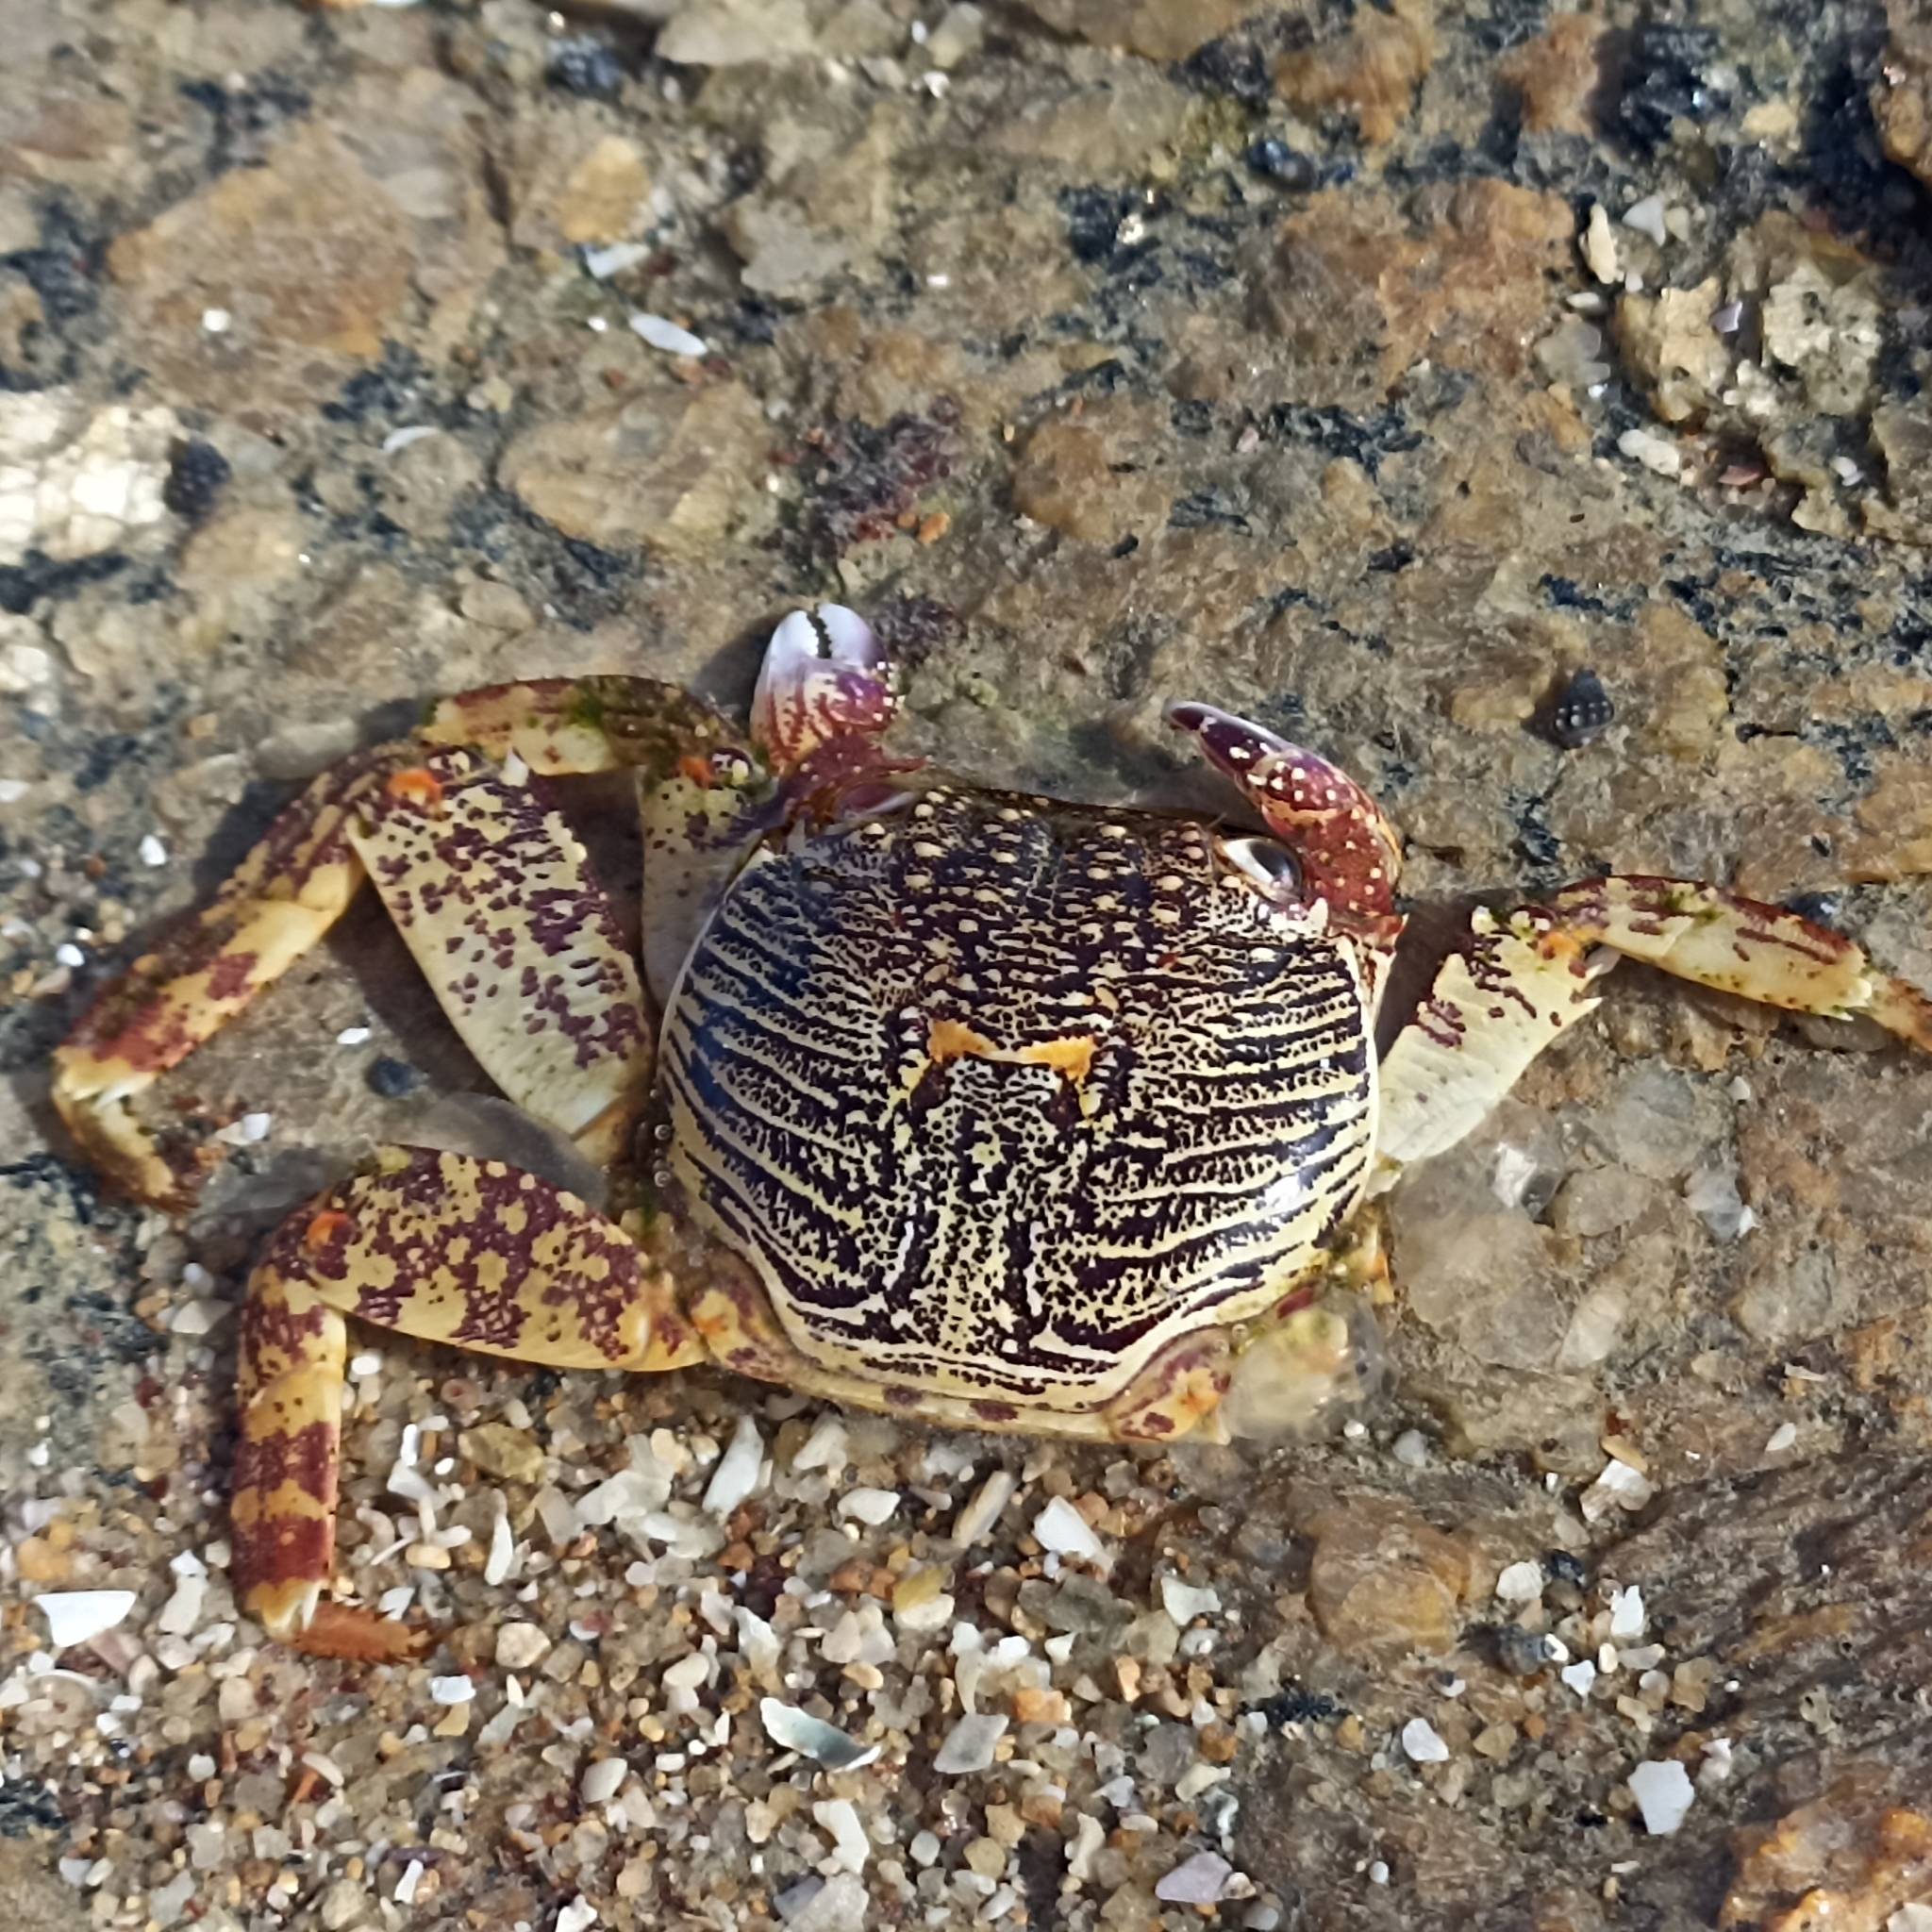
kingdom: Animalia
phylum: Arthropoda
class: Malacostraca
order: Decapoda
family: Grapsidae
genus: Grapsus
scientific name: Grapsus albolineatus
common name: Mottled lightfoot crab
